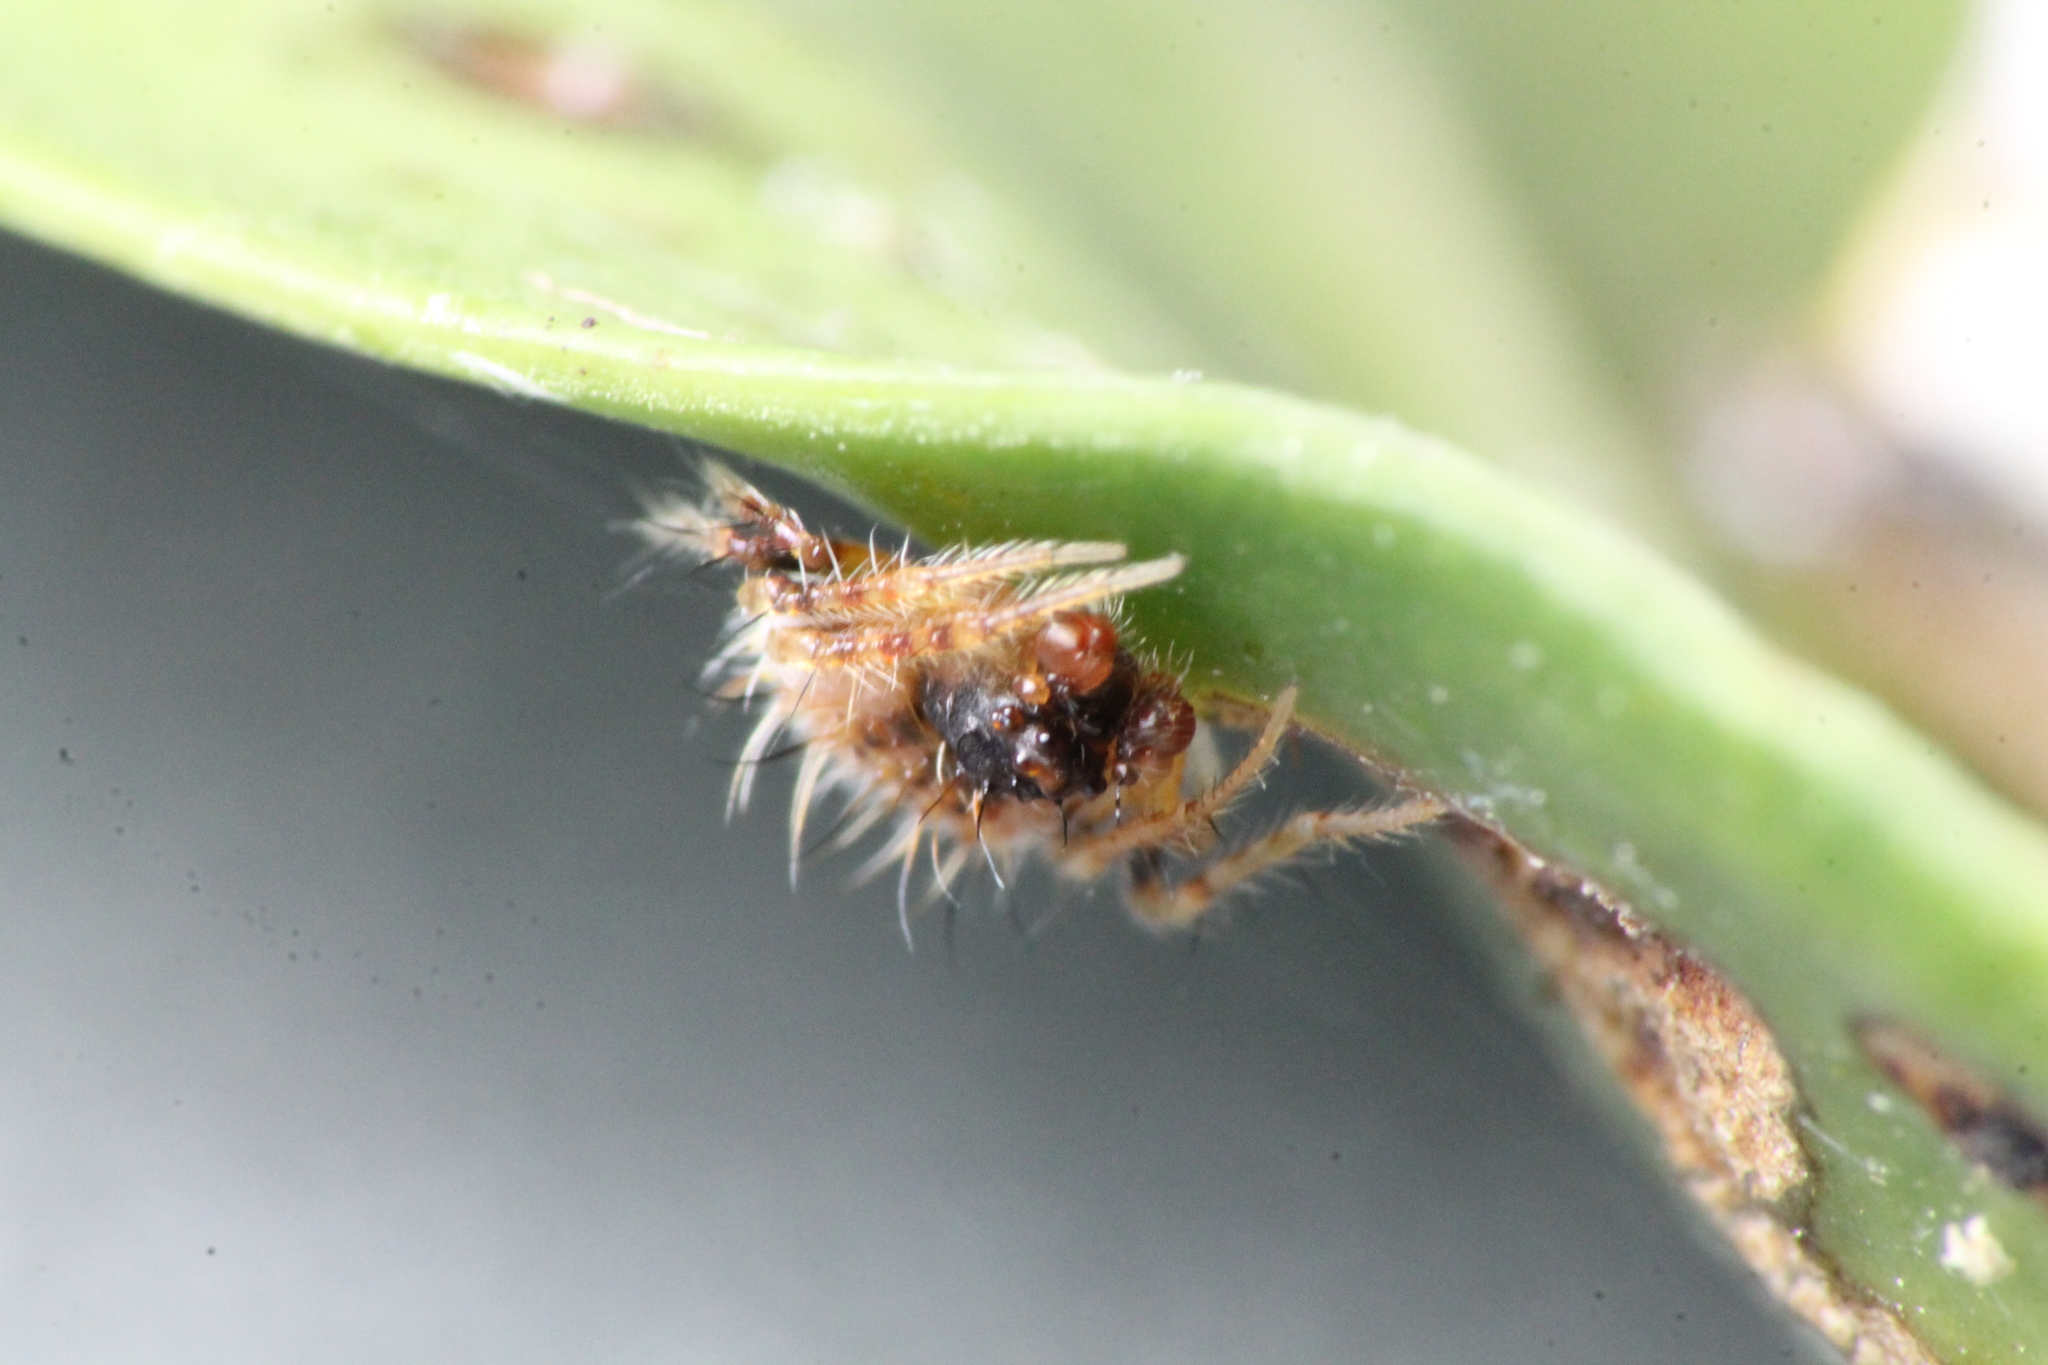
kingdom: Animalia
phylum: Arthropoda
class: Arachnida
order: Araneae
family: Araneidae
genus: Poecilopachys
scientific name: Poecilopachys australasia
